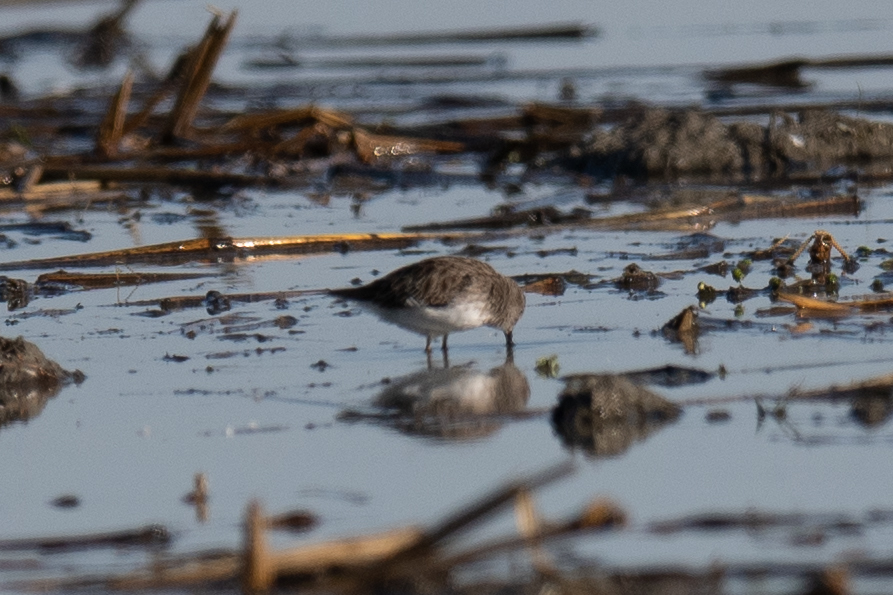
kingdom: Animalia
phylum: Chordata
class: Aves
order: Charadriiformes
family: Scolopacidae
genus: Calidris
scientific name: Calidris minutilla
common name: Least sandpiper
